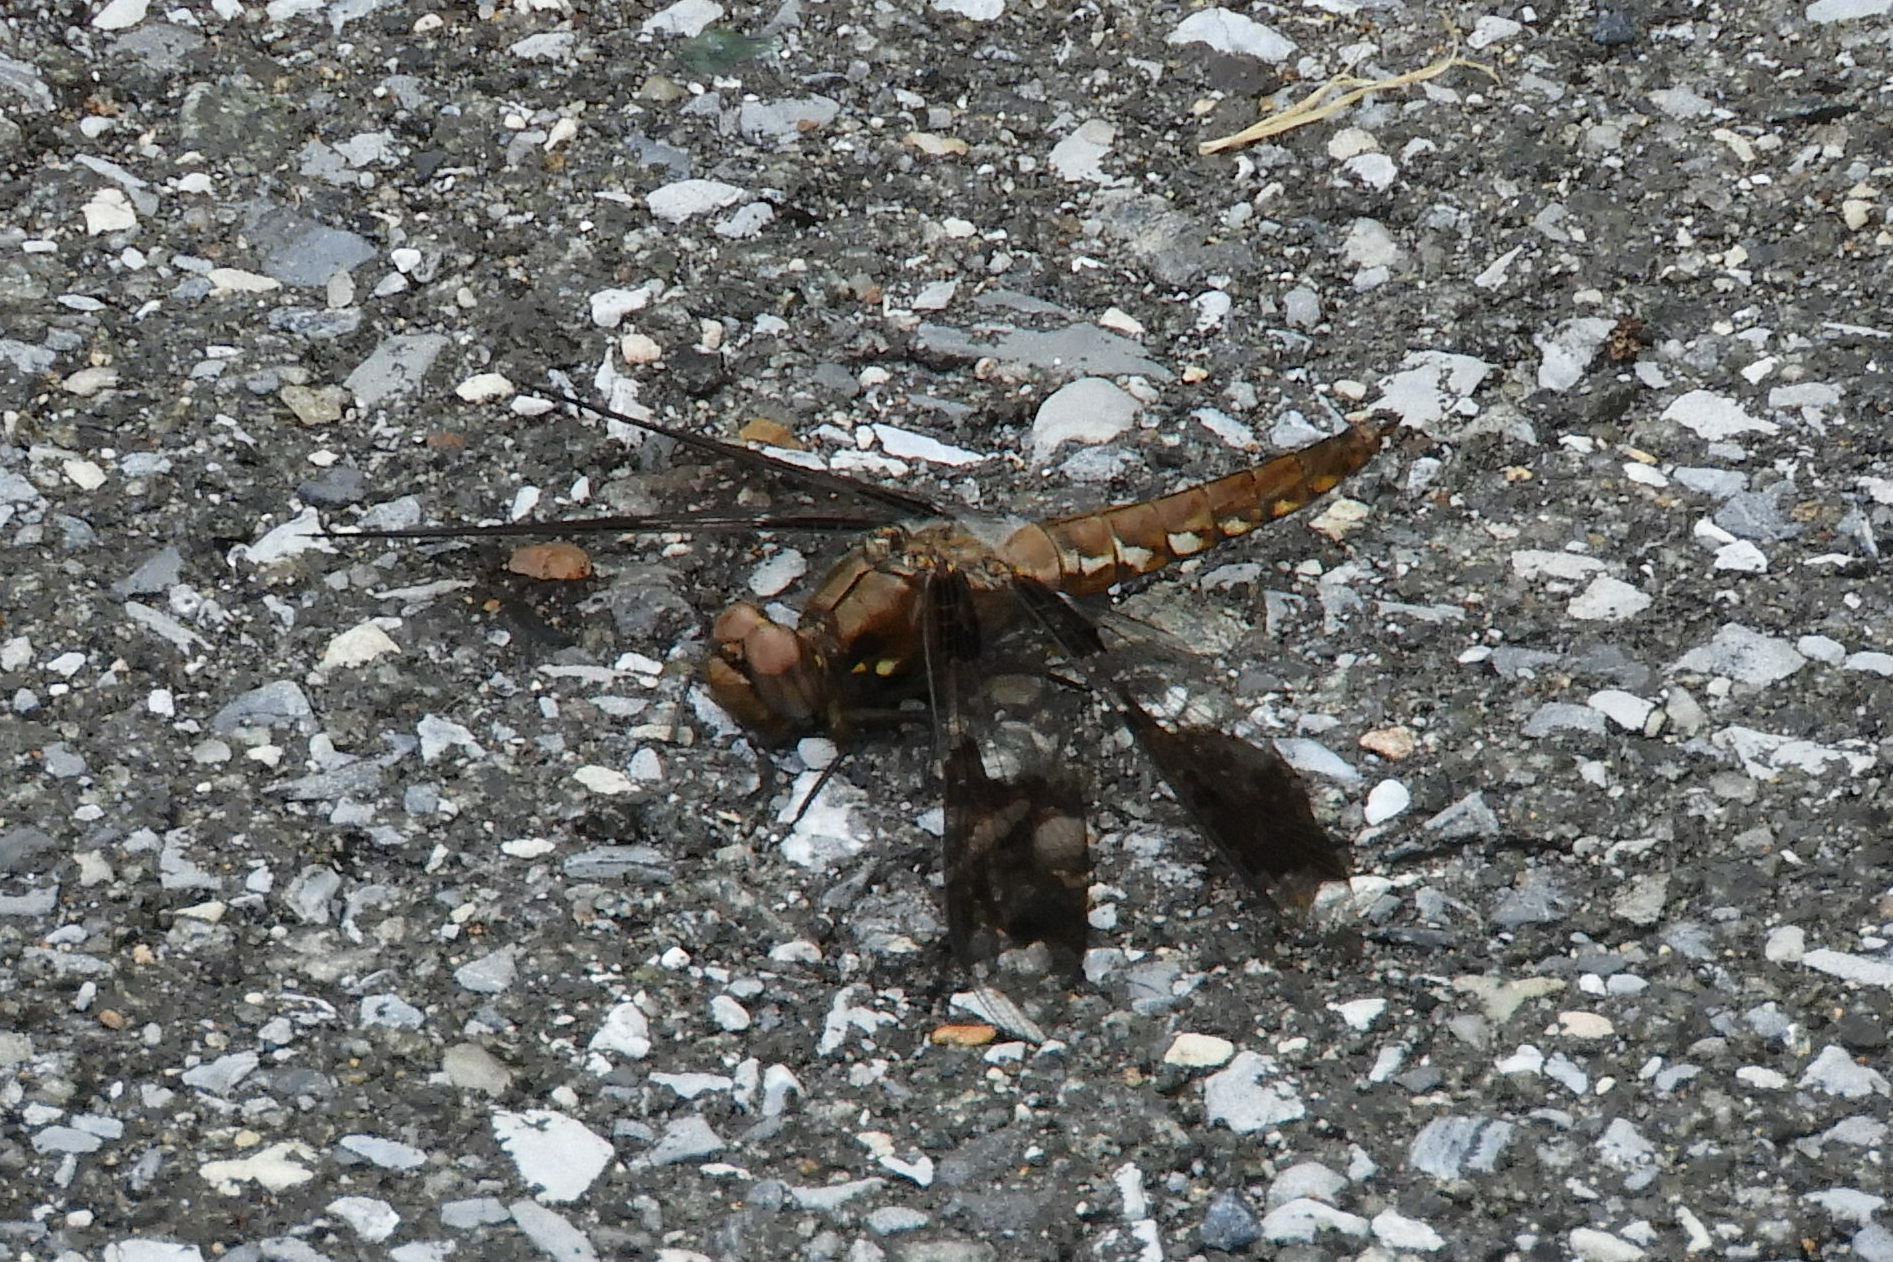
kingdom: Animalia
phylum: Arthropoda
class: Insecta
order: Odonata
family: Libellulidae
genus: Plathemis
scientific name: Plathemis lydia
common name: Common whitetail
